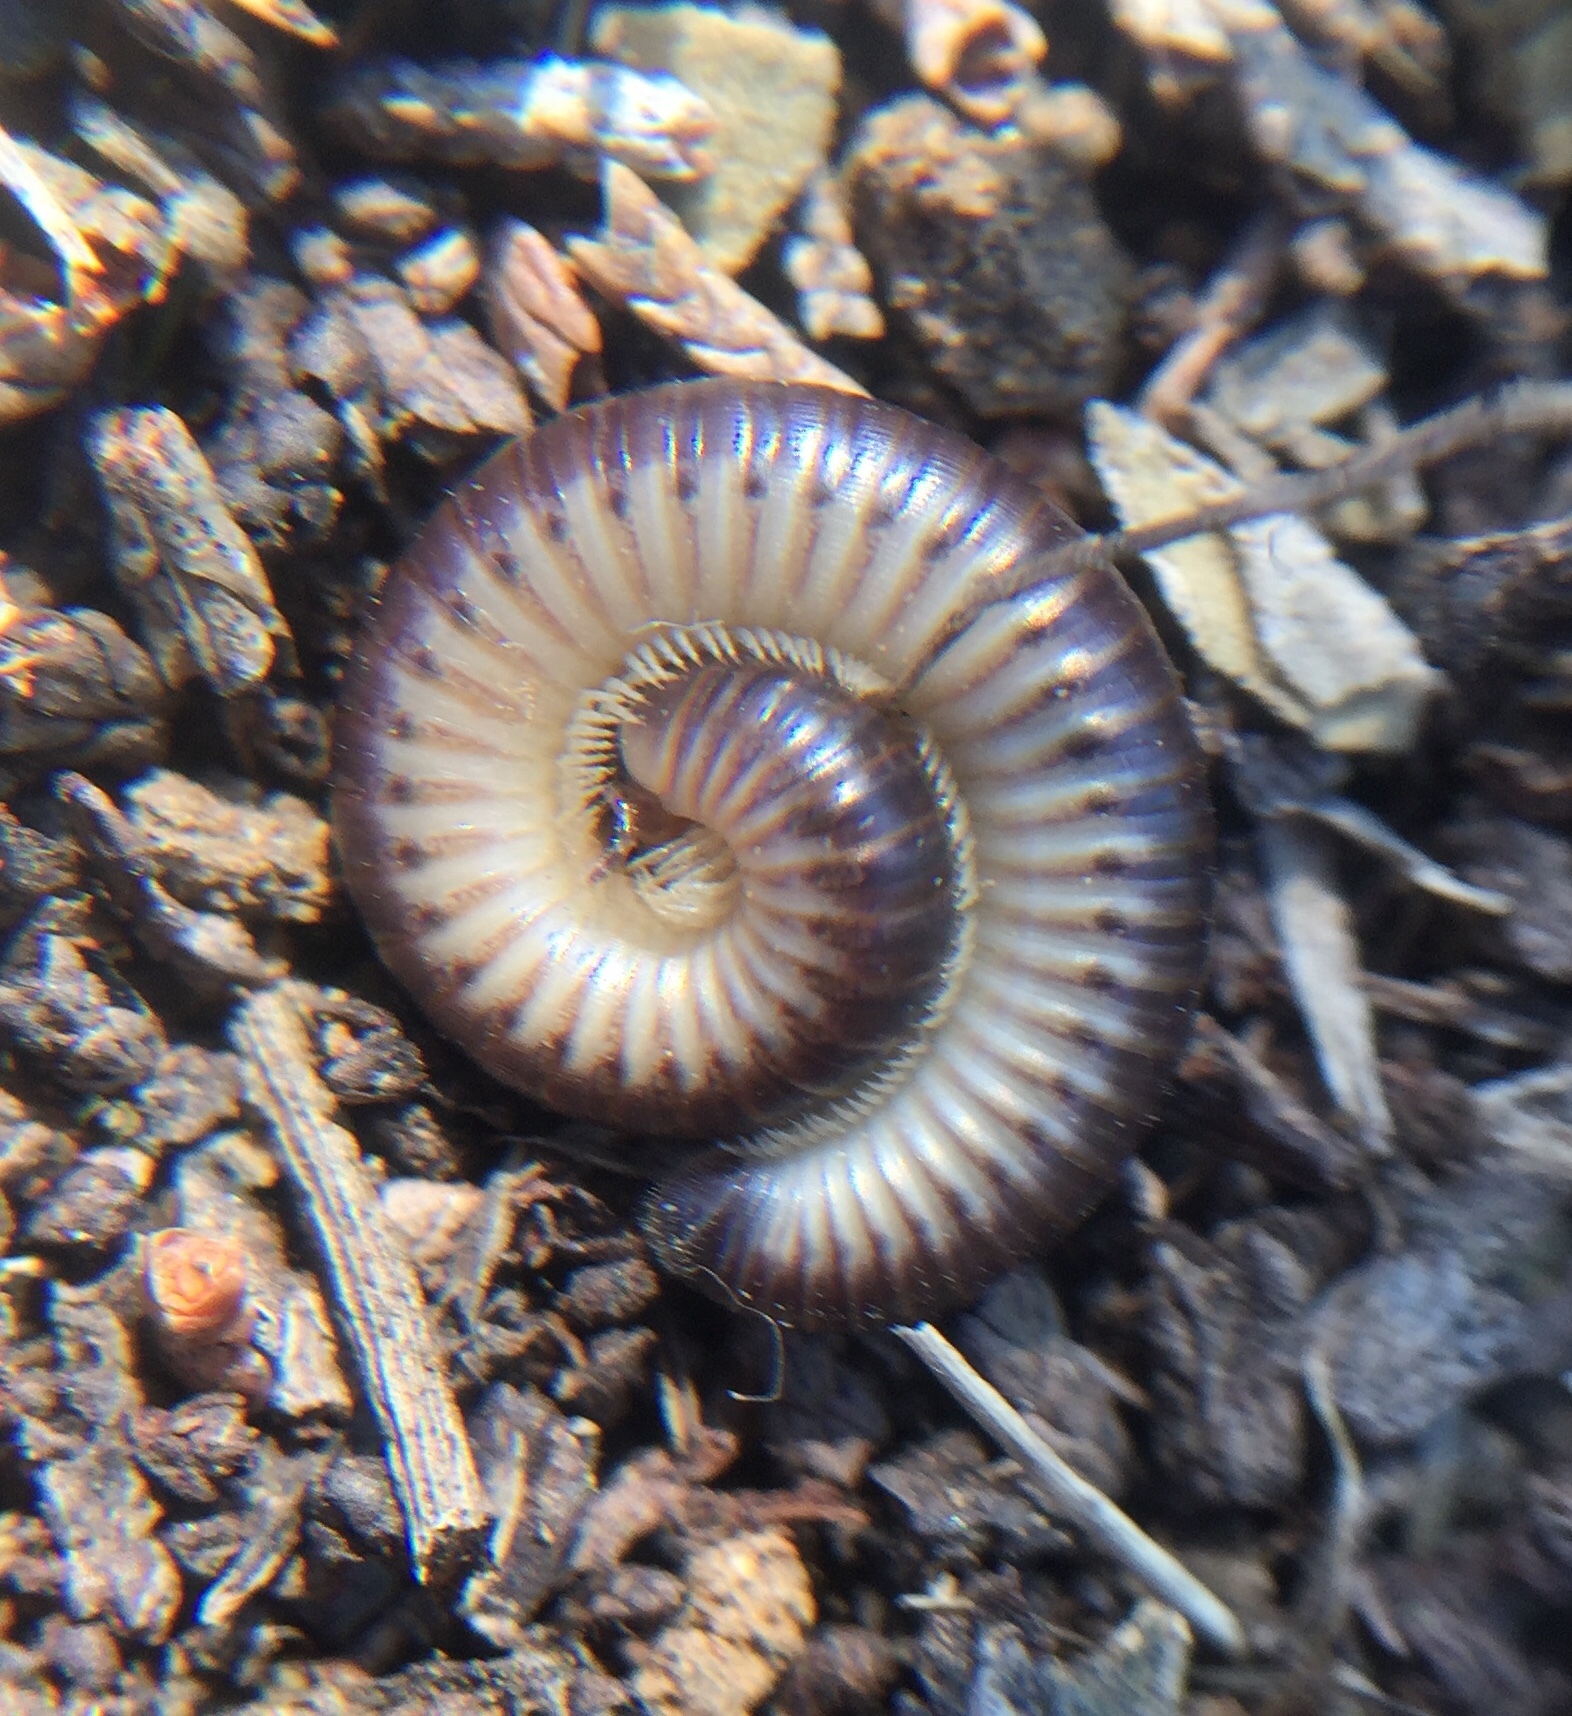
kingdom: Animalia
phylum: Arthropoda
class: Diplopoda
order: Julida
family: Julidae
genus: Pachyiulus
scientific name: Pachyiulus flavipes
